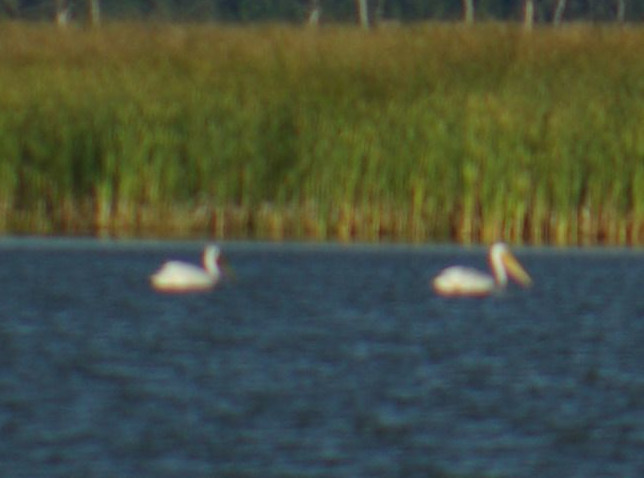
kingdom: Animalia
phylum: Chordata
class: Aves
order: Pelecaniformes
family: Pelecanidae
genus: Pelecanus
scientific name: Pelecanus erythrorhynchos
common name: American white pelican
